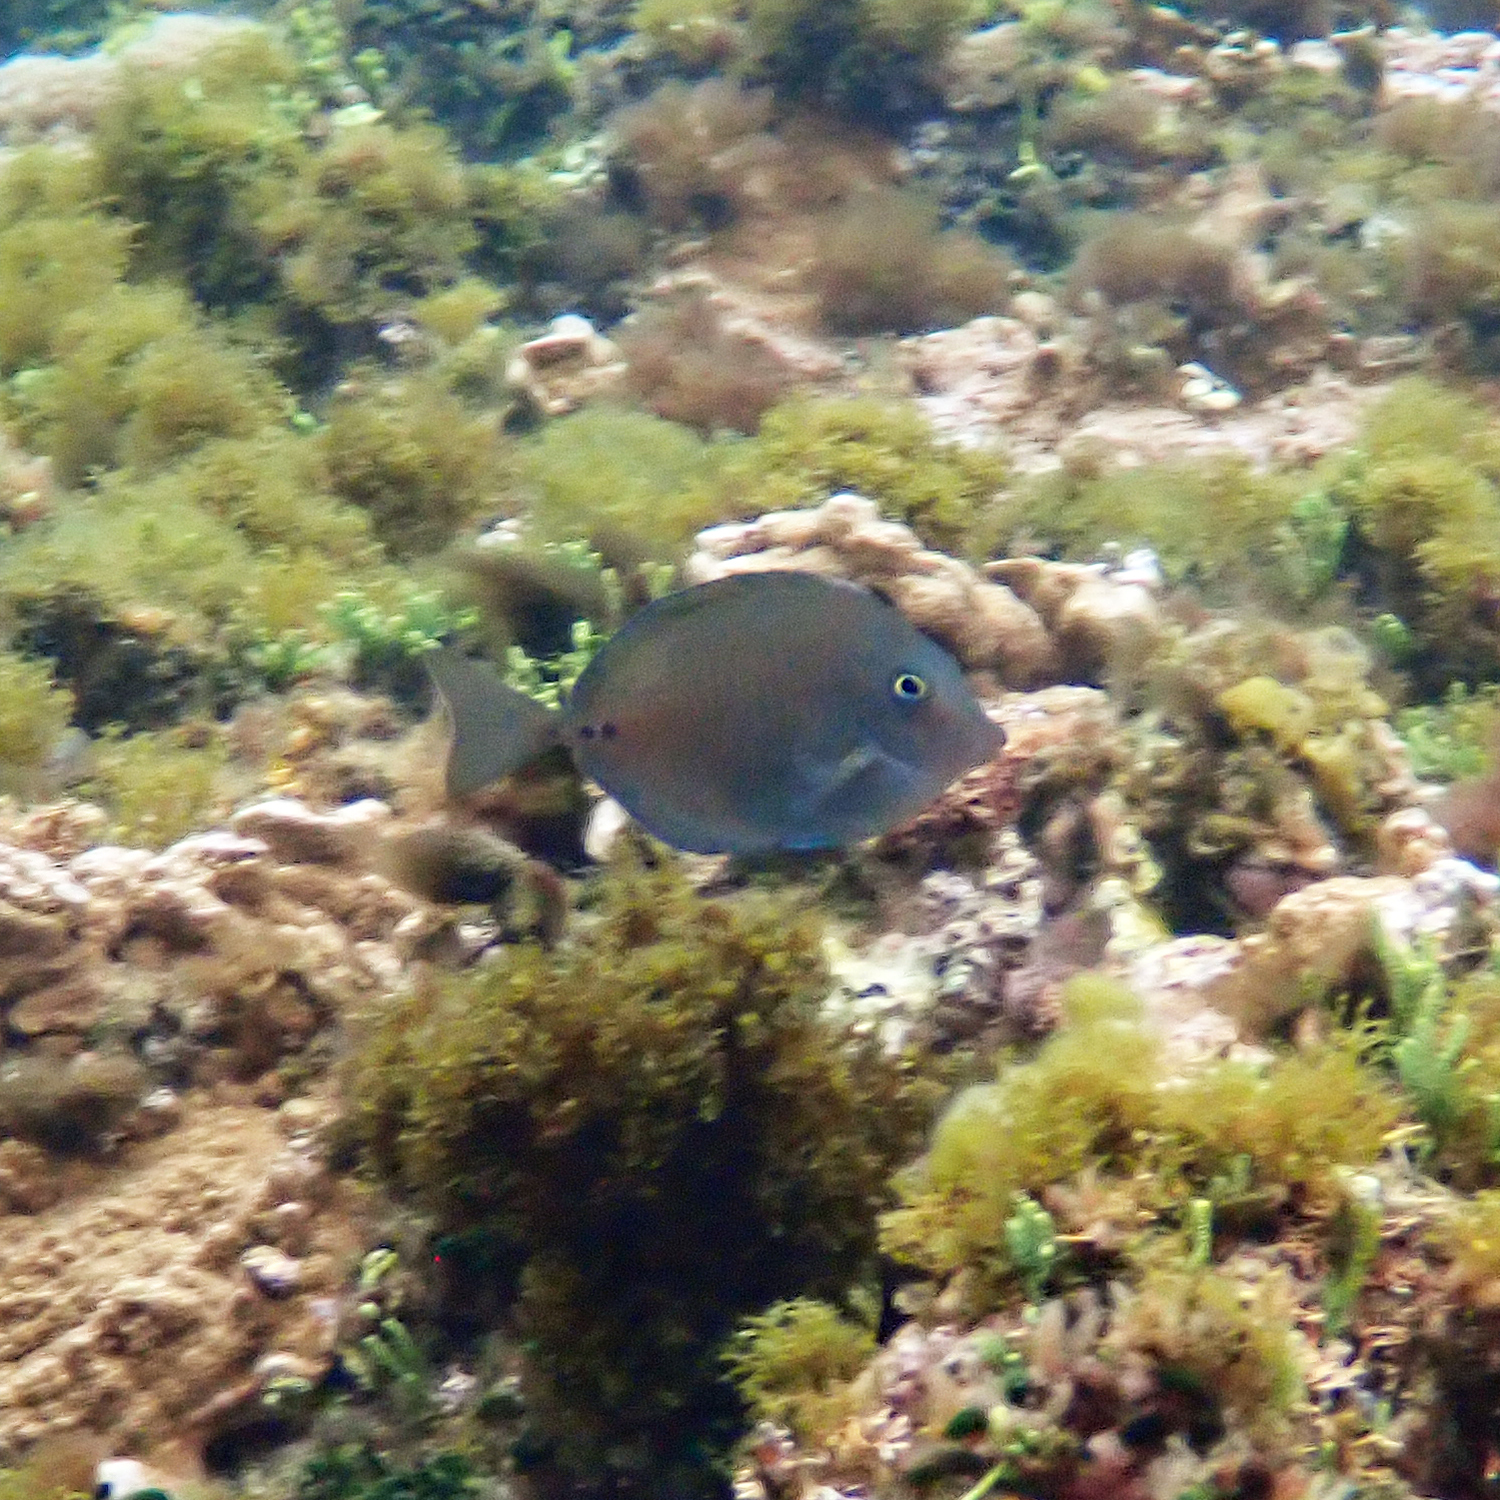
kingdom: Animalia
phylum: Chordata
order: Perciformes
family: Acanthuridae
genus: Prionurus
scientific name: Prionurus maculatus
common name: Yellowspotted sawtail
